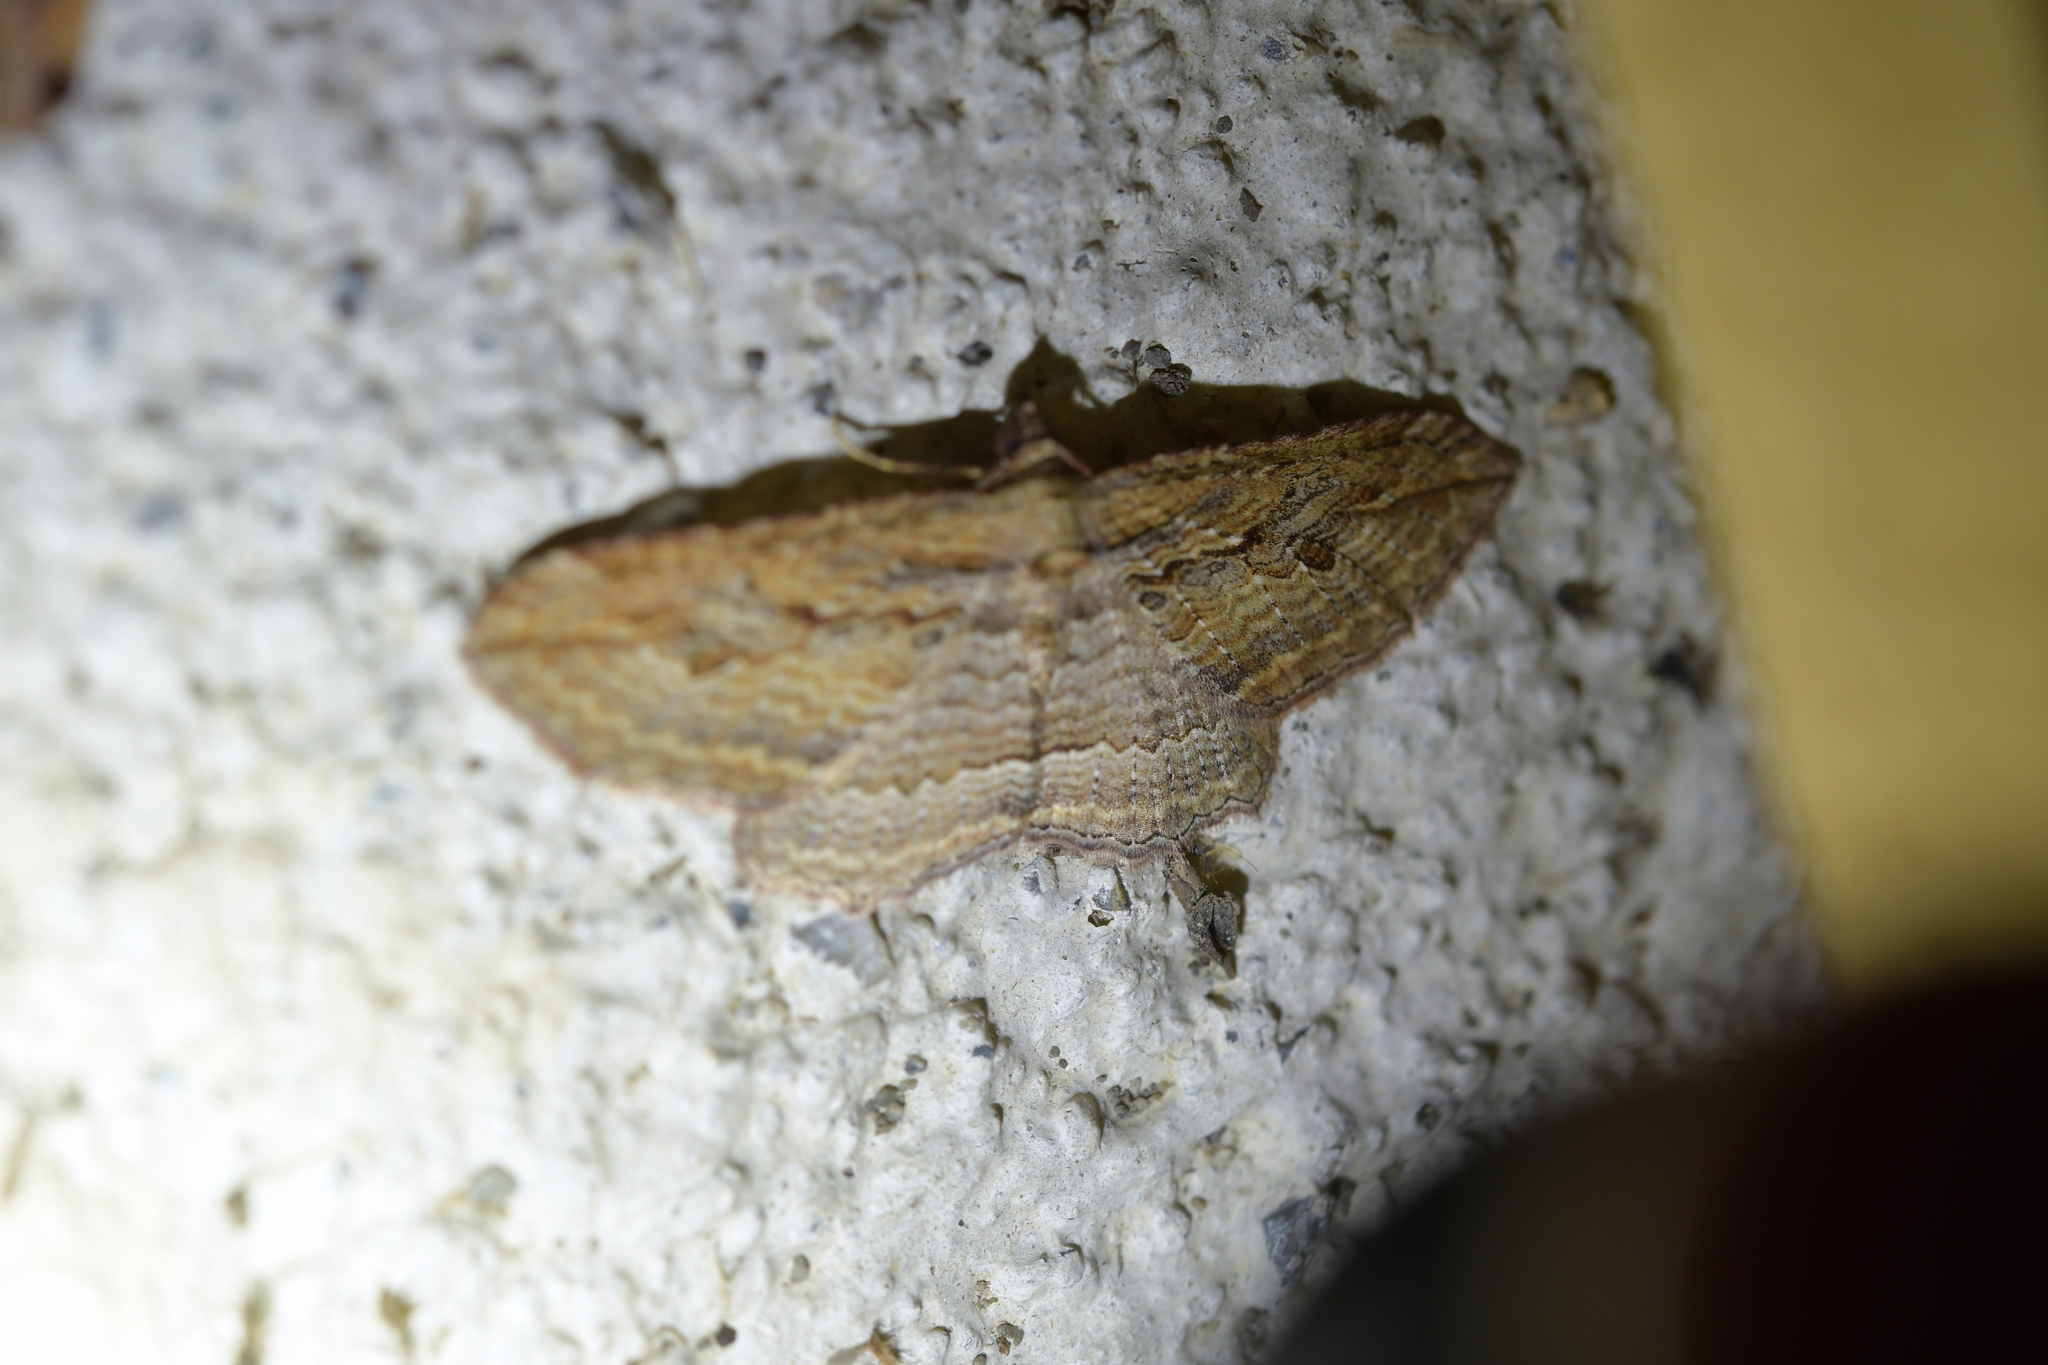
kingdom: Animalia
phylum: Arthropoda
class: Insecta
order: Lepidoptera
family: Geometridae
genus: Austrocidaria
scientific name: Austrocidaria gobiata
